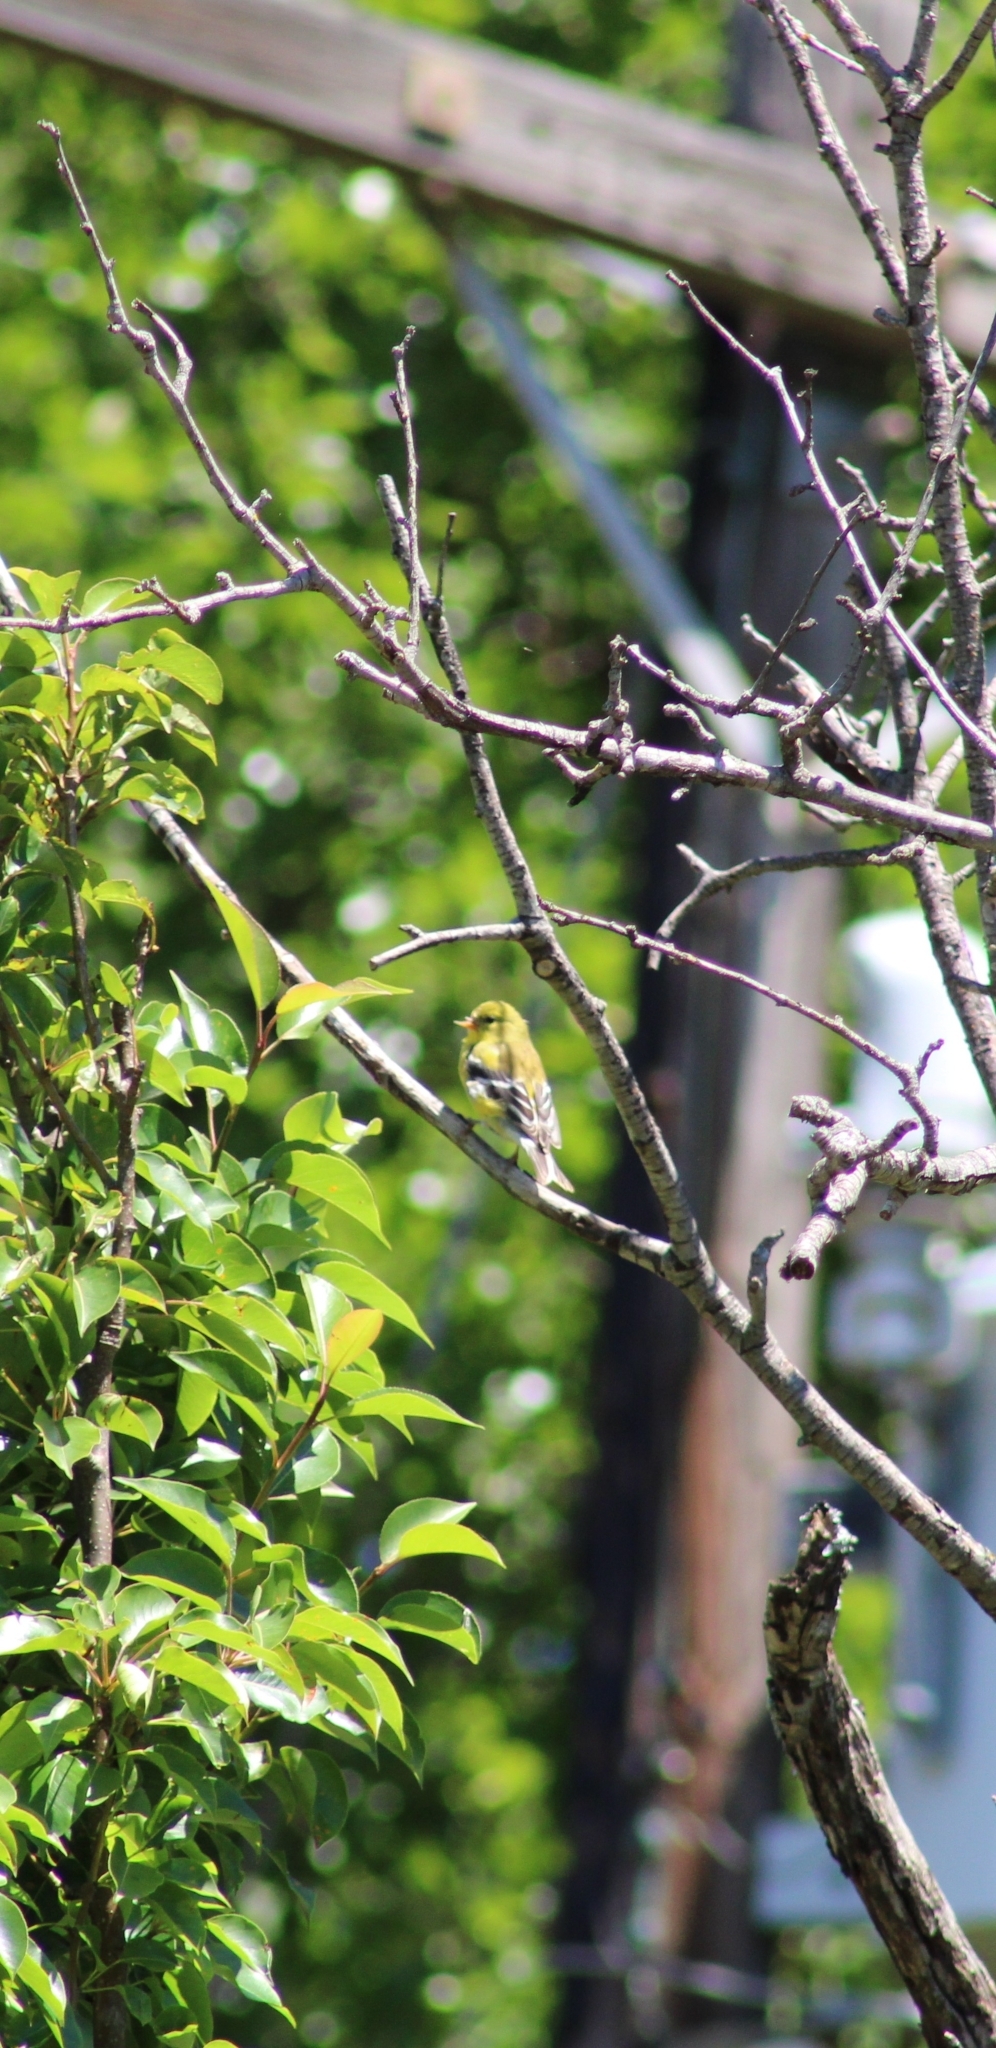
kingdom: Animalia
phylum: Chordata
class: Aves
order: Passeriformes
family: Fringillidae
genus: Spinus
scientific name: Spinus tristis
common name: American goldfinch
